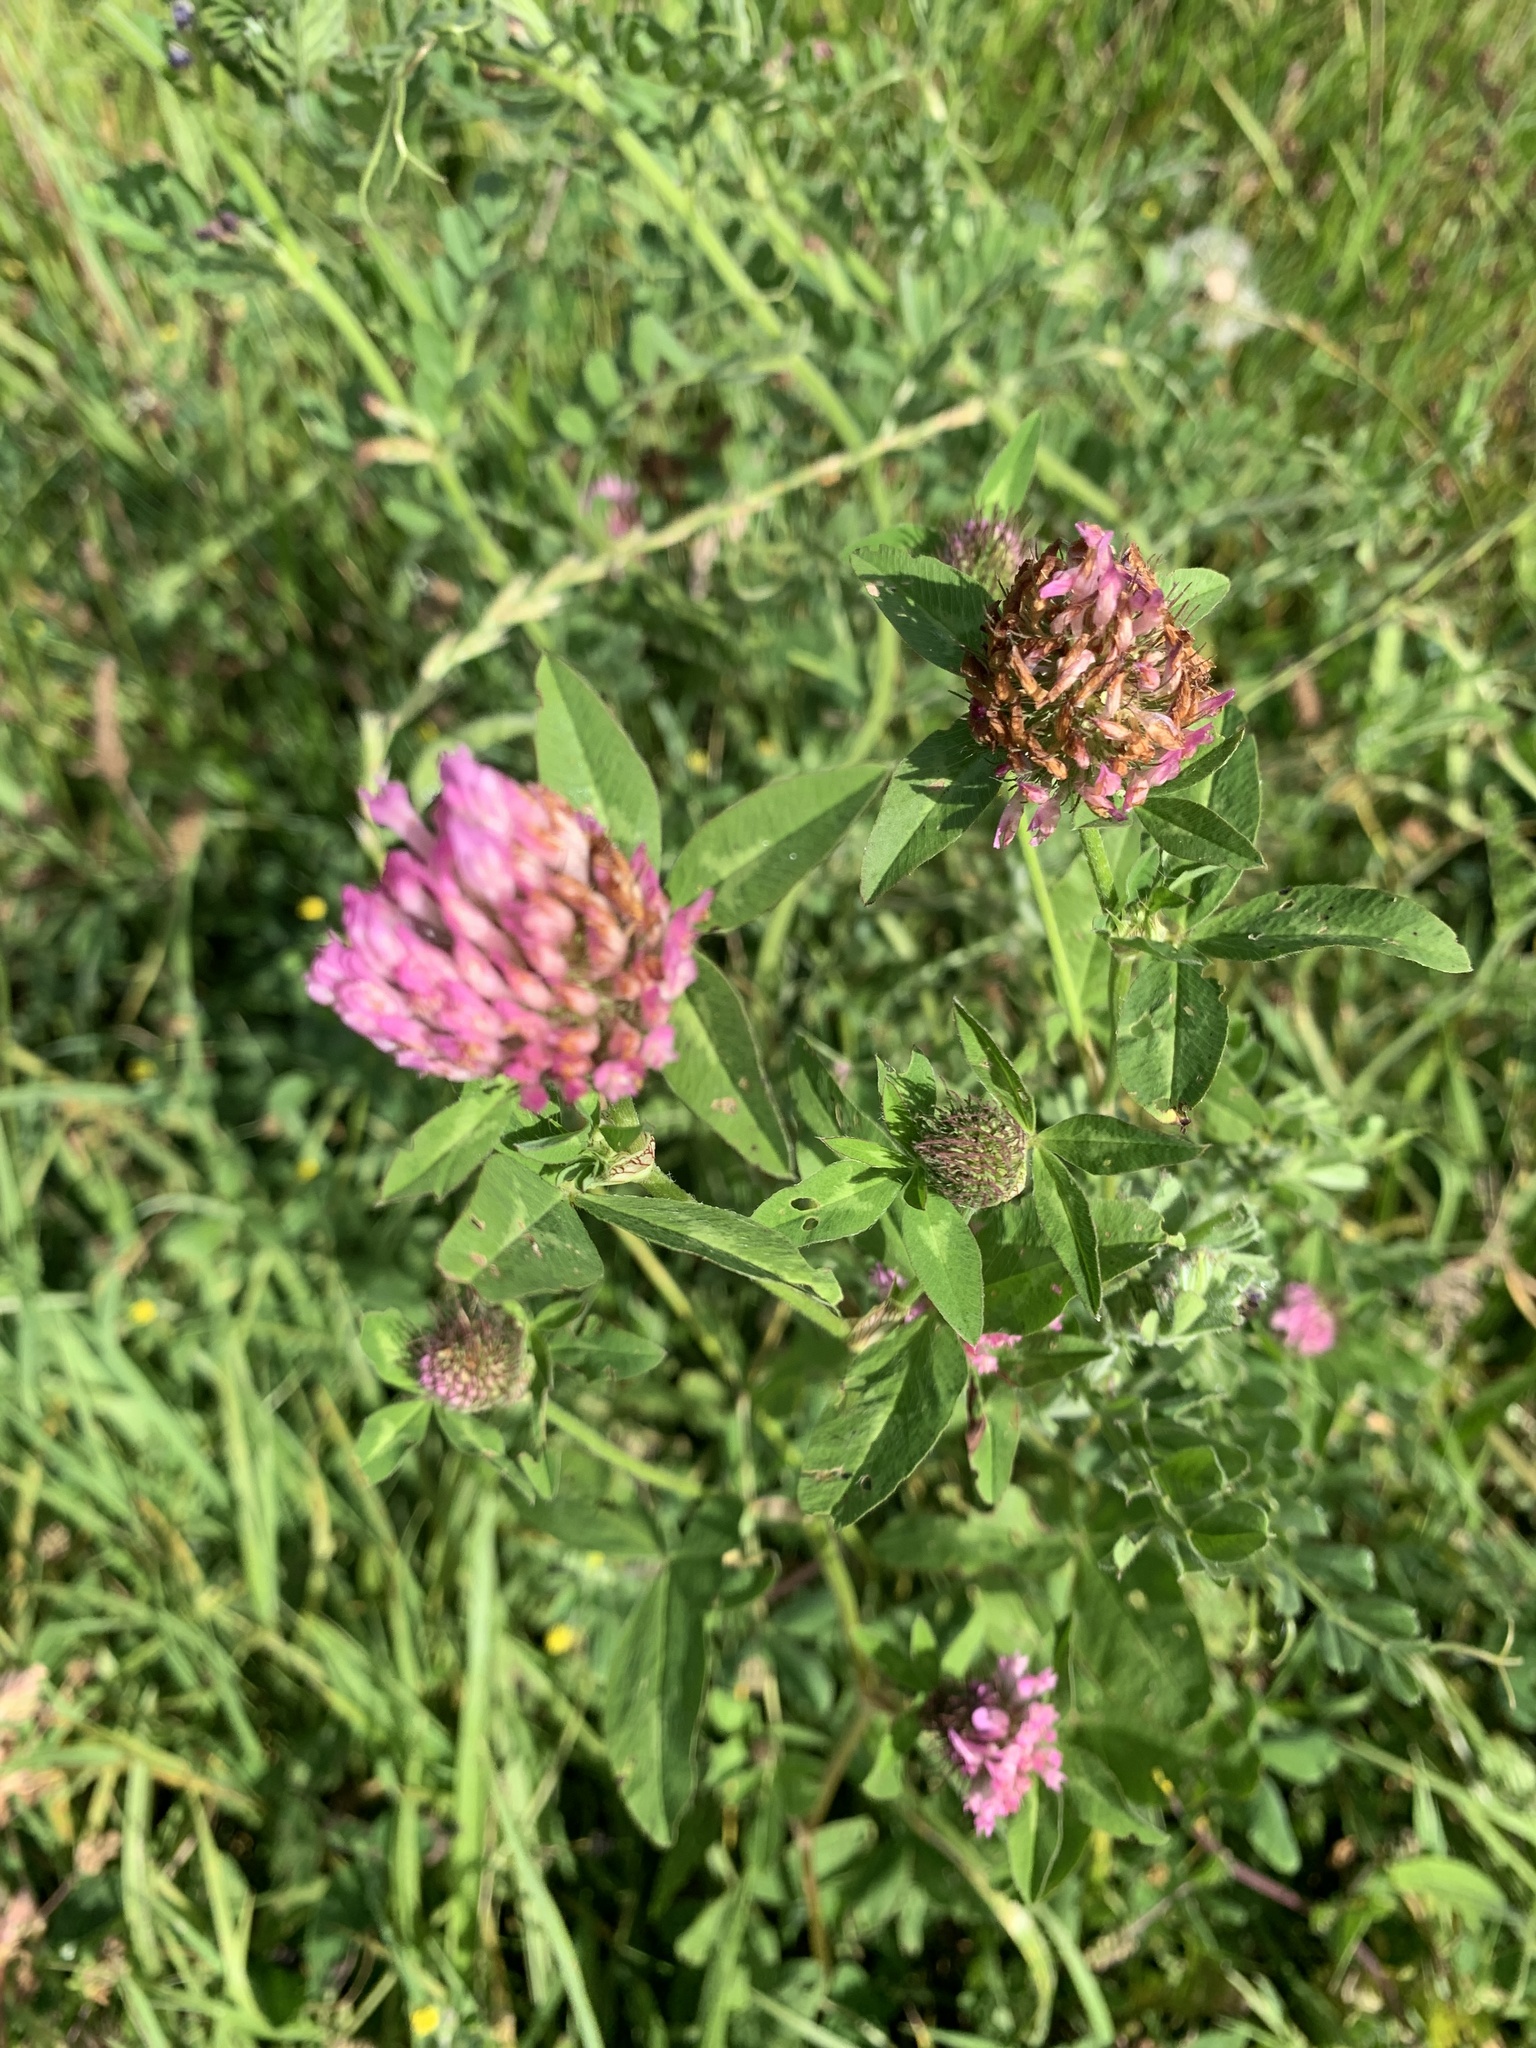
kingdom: Plantae
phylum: Tracheophyta
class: Magnoliopsida
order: Fabales
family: Fabaceae
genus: Trifolium
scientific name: Trifolium pratense
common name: Red clover
